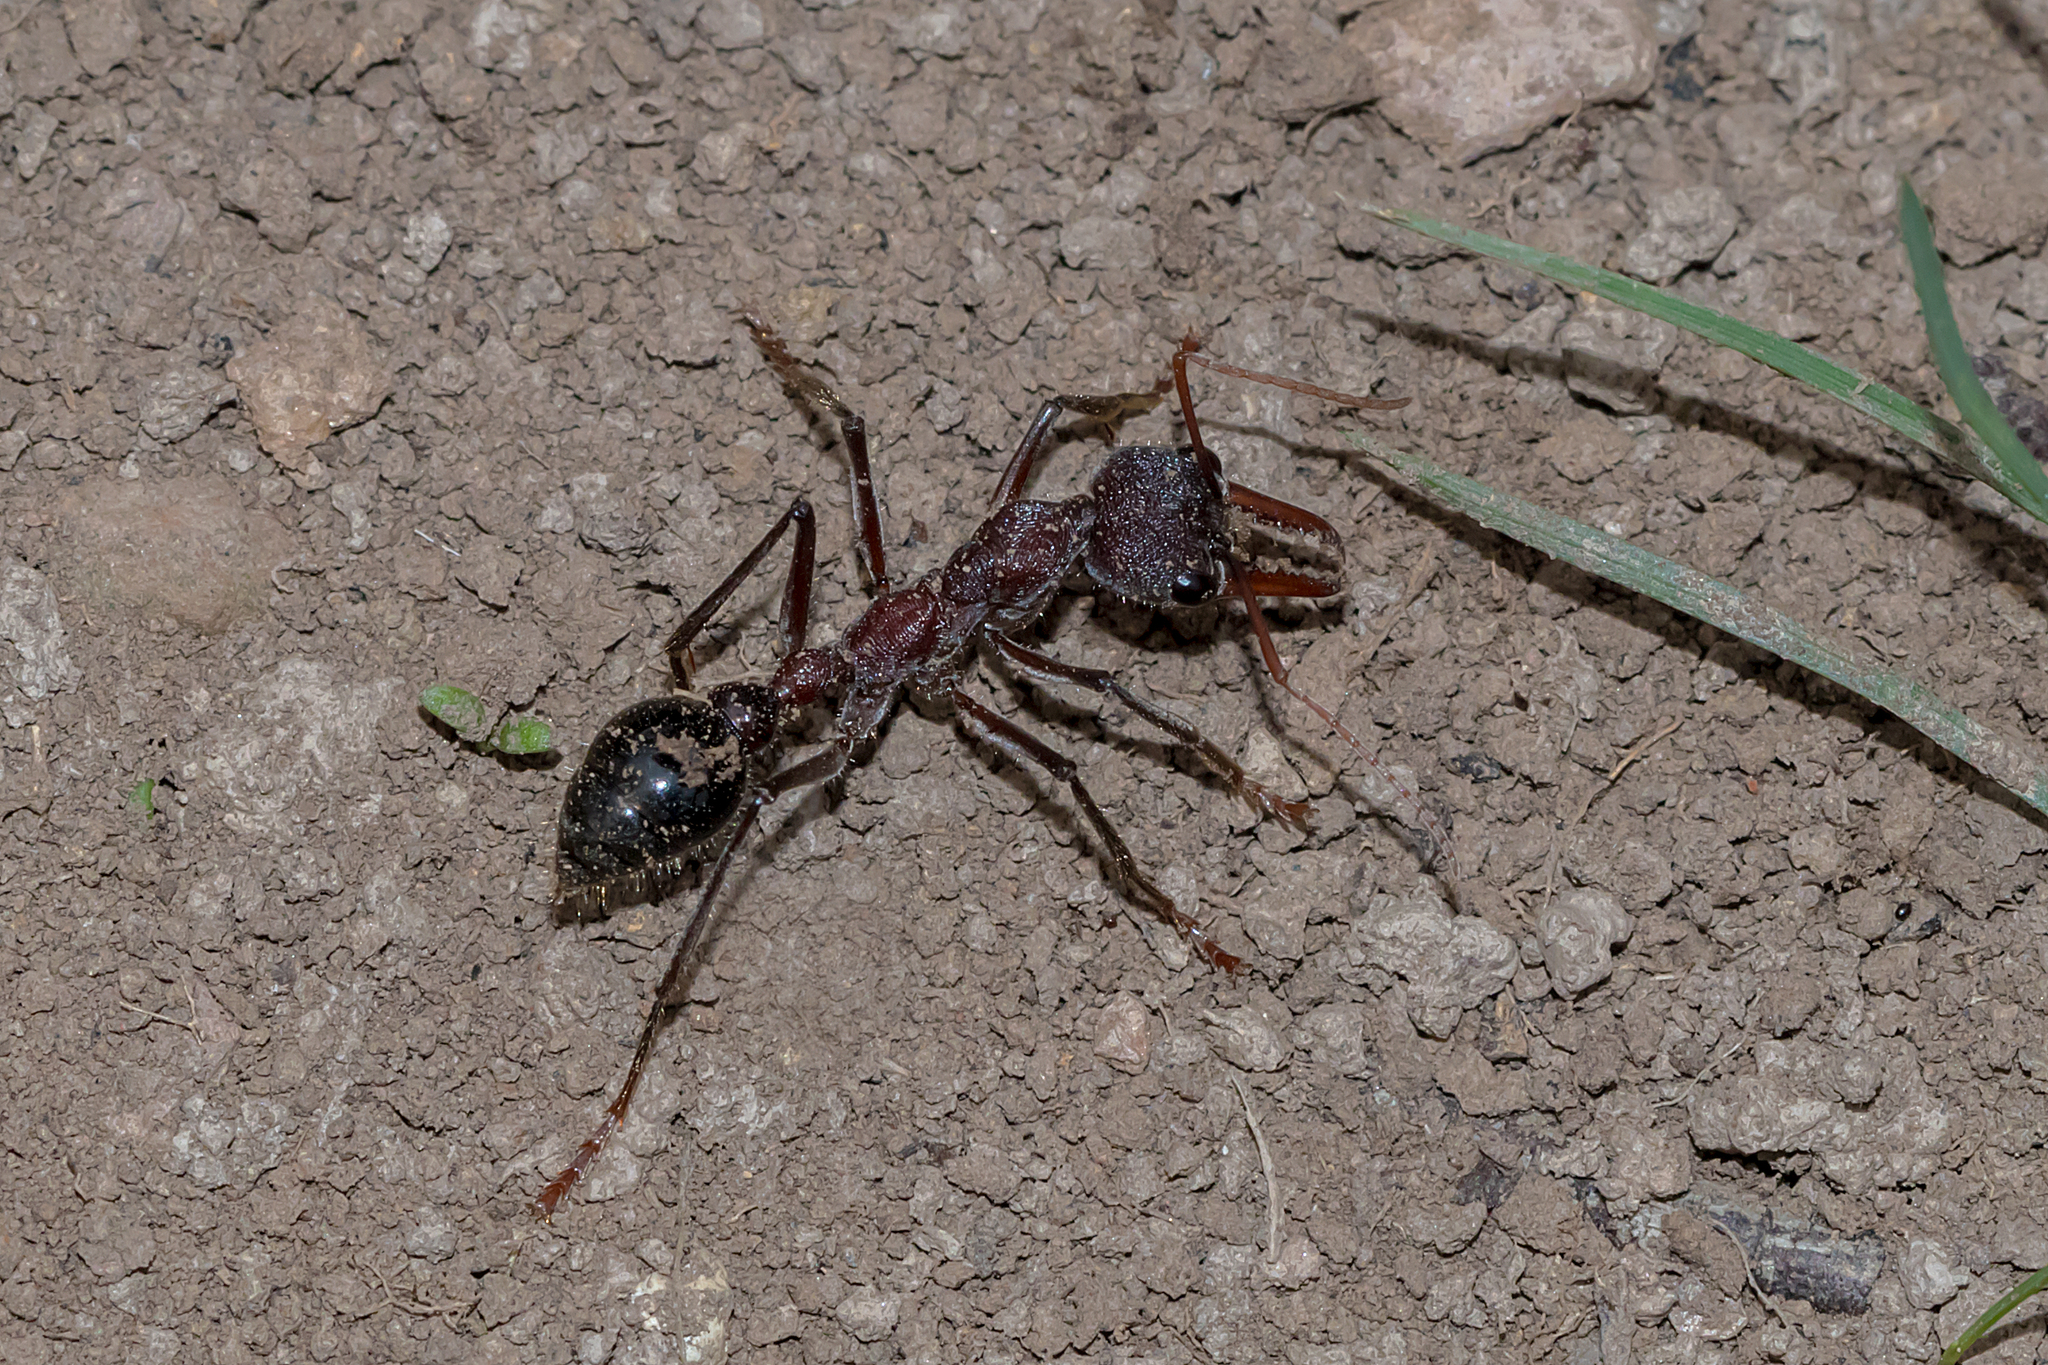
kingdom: Animalia
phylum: Arthropoda
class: Insecta
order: Hymenoptera
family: Formicidae
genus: Myrmecia
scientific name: Myrmecia simillima
